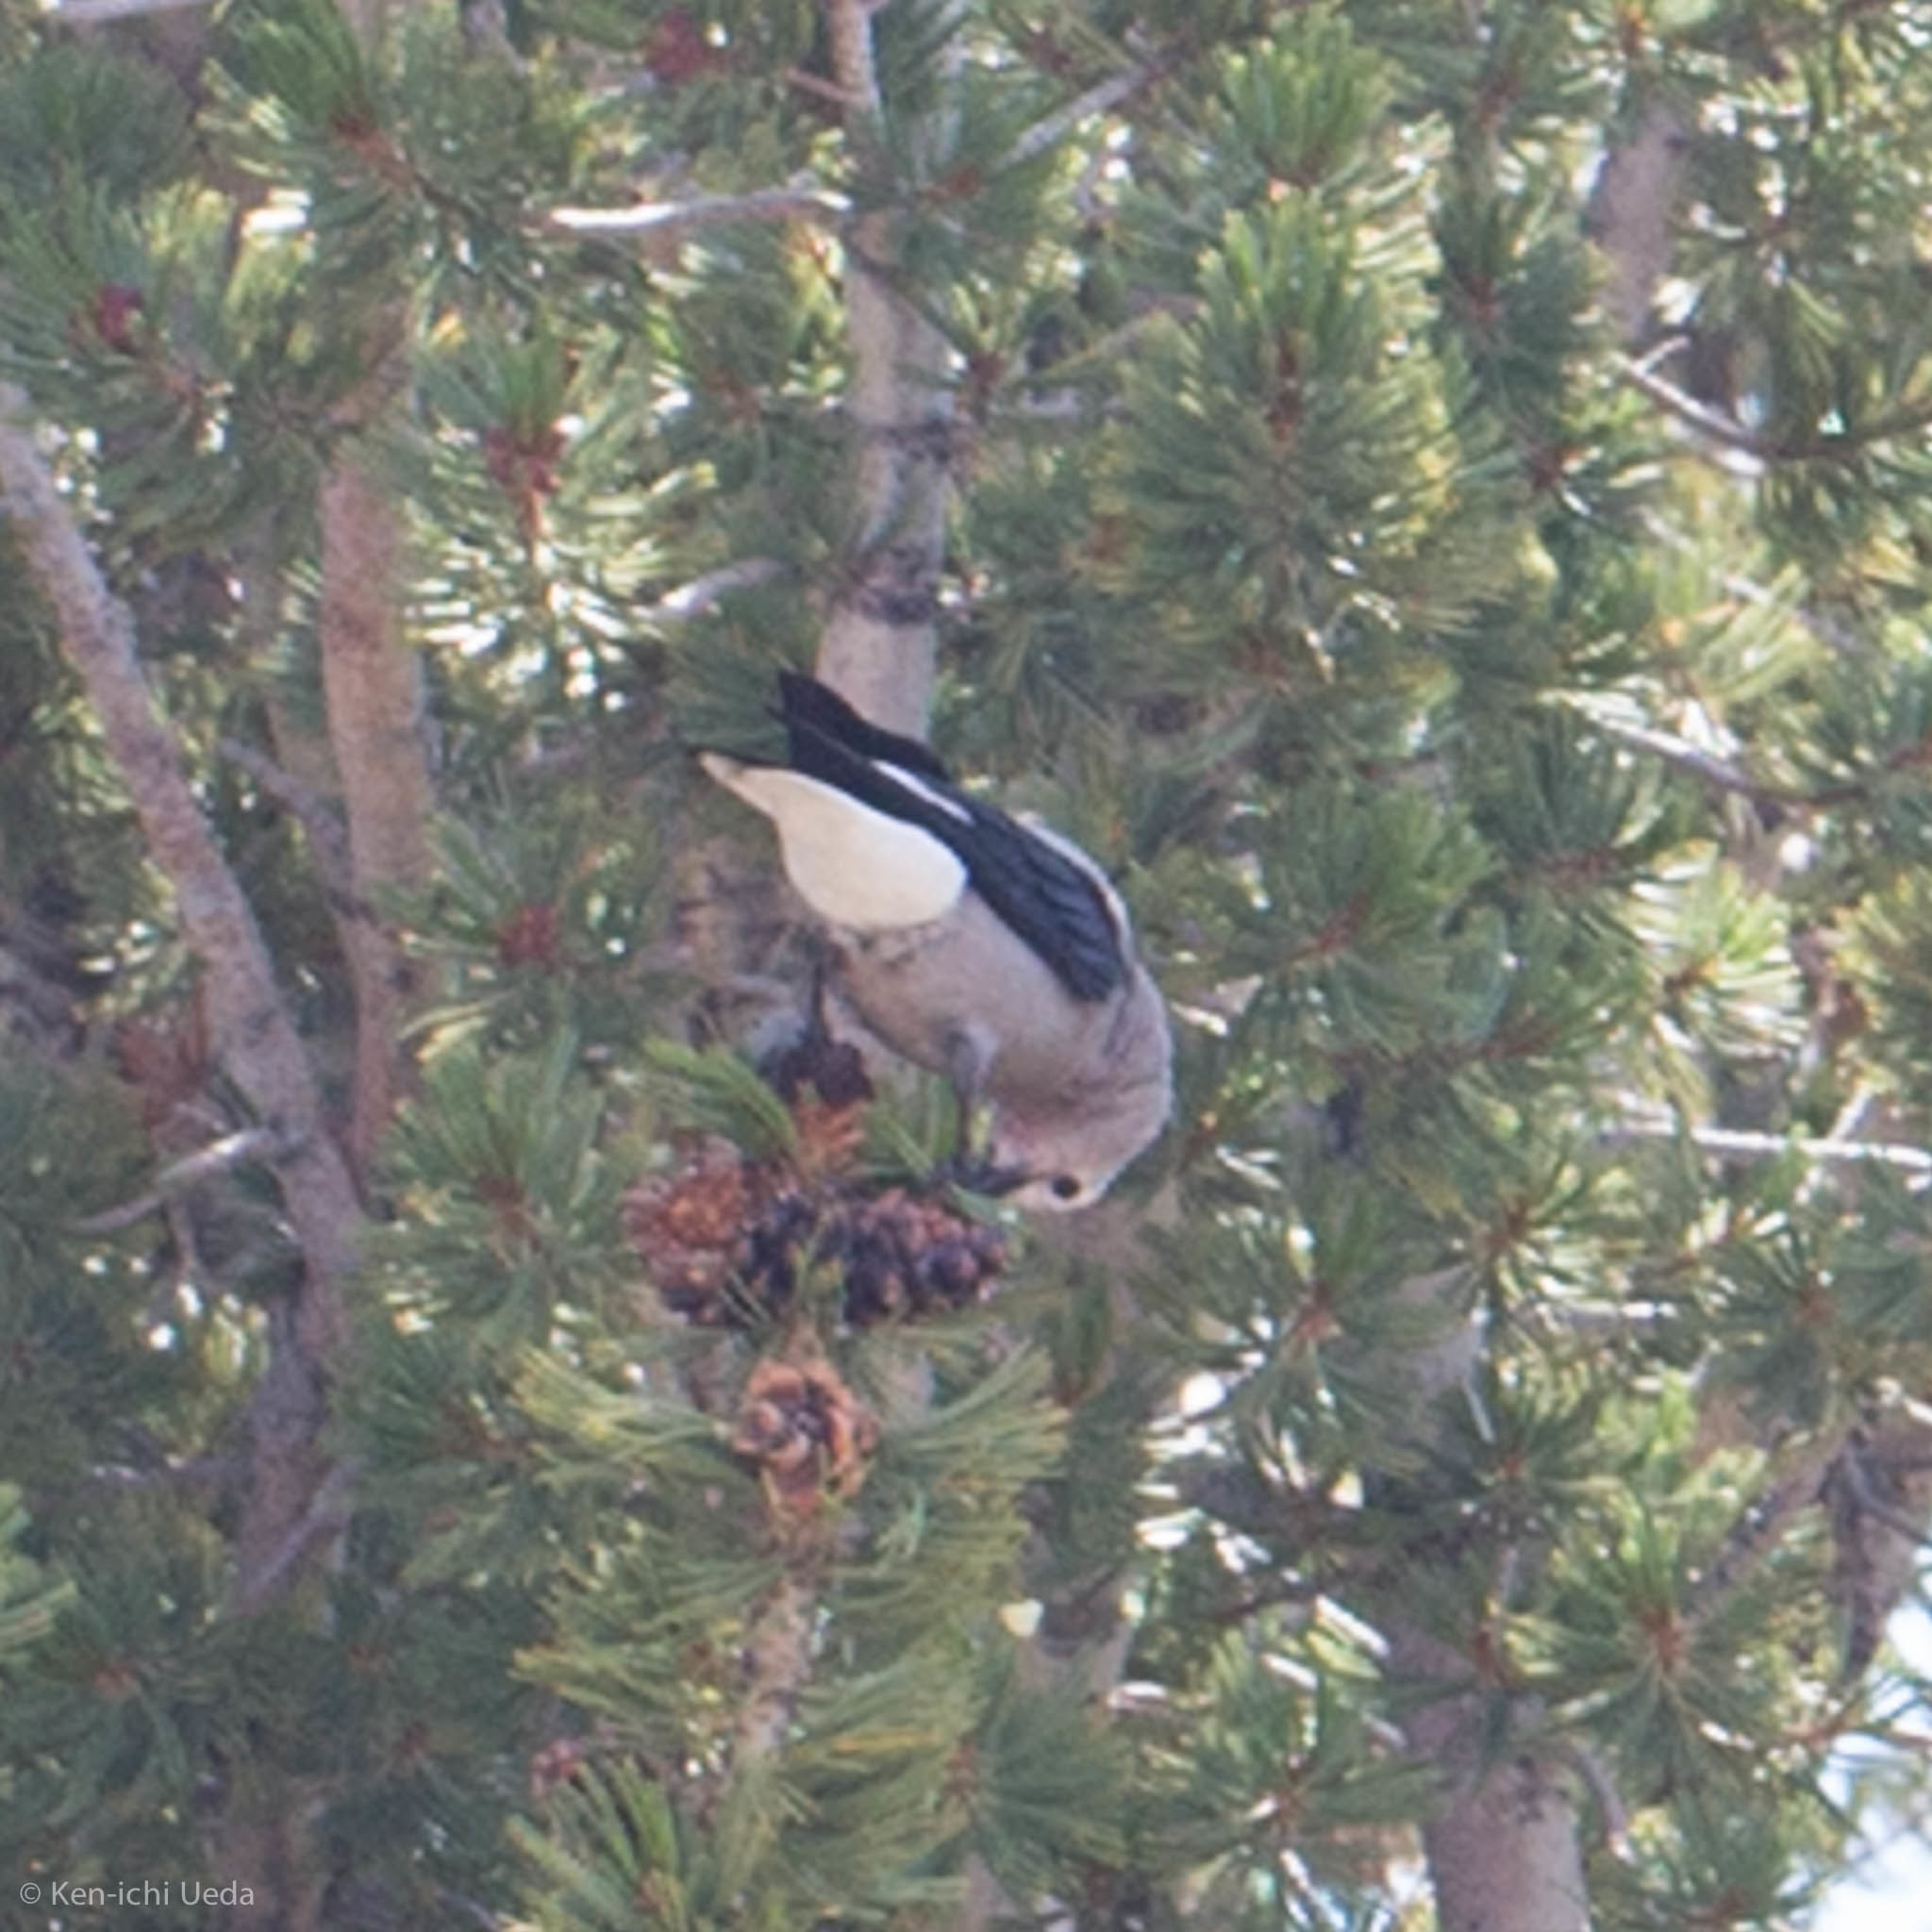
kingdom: Animalia
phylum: Chordata
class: Aves
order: Passeriformes
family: Corvidae
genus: Nucifraga
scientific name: Nucifraga columbiana
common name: Clark's nutcracker
